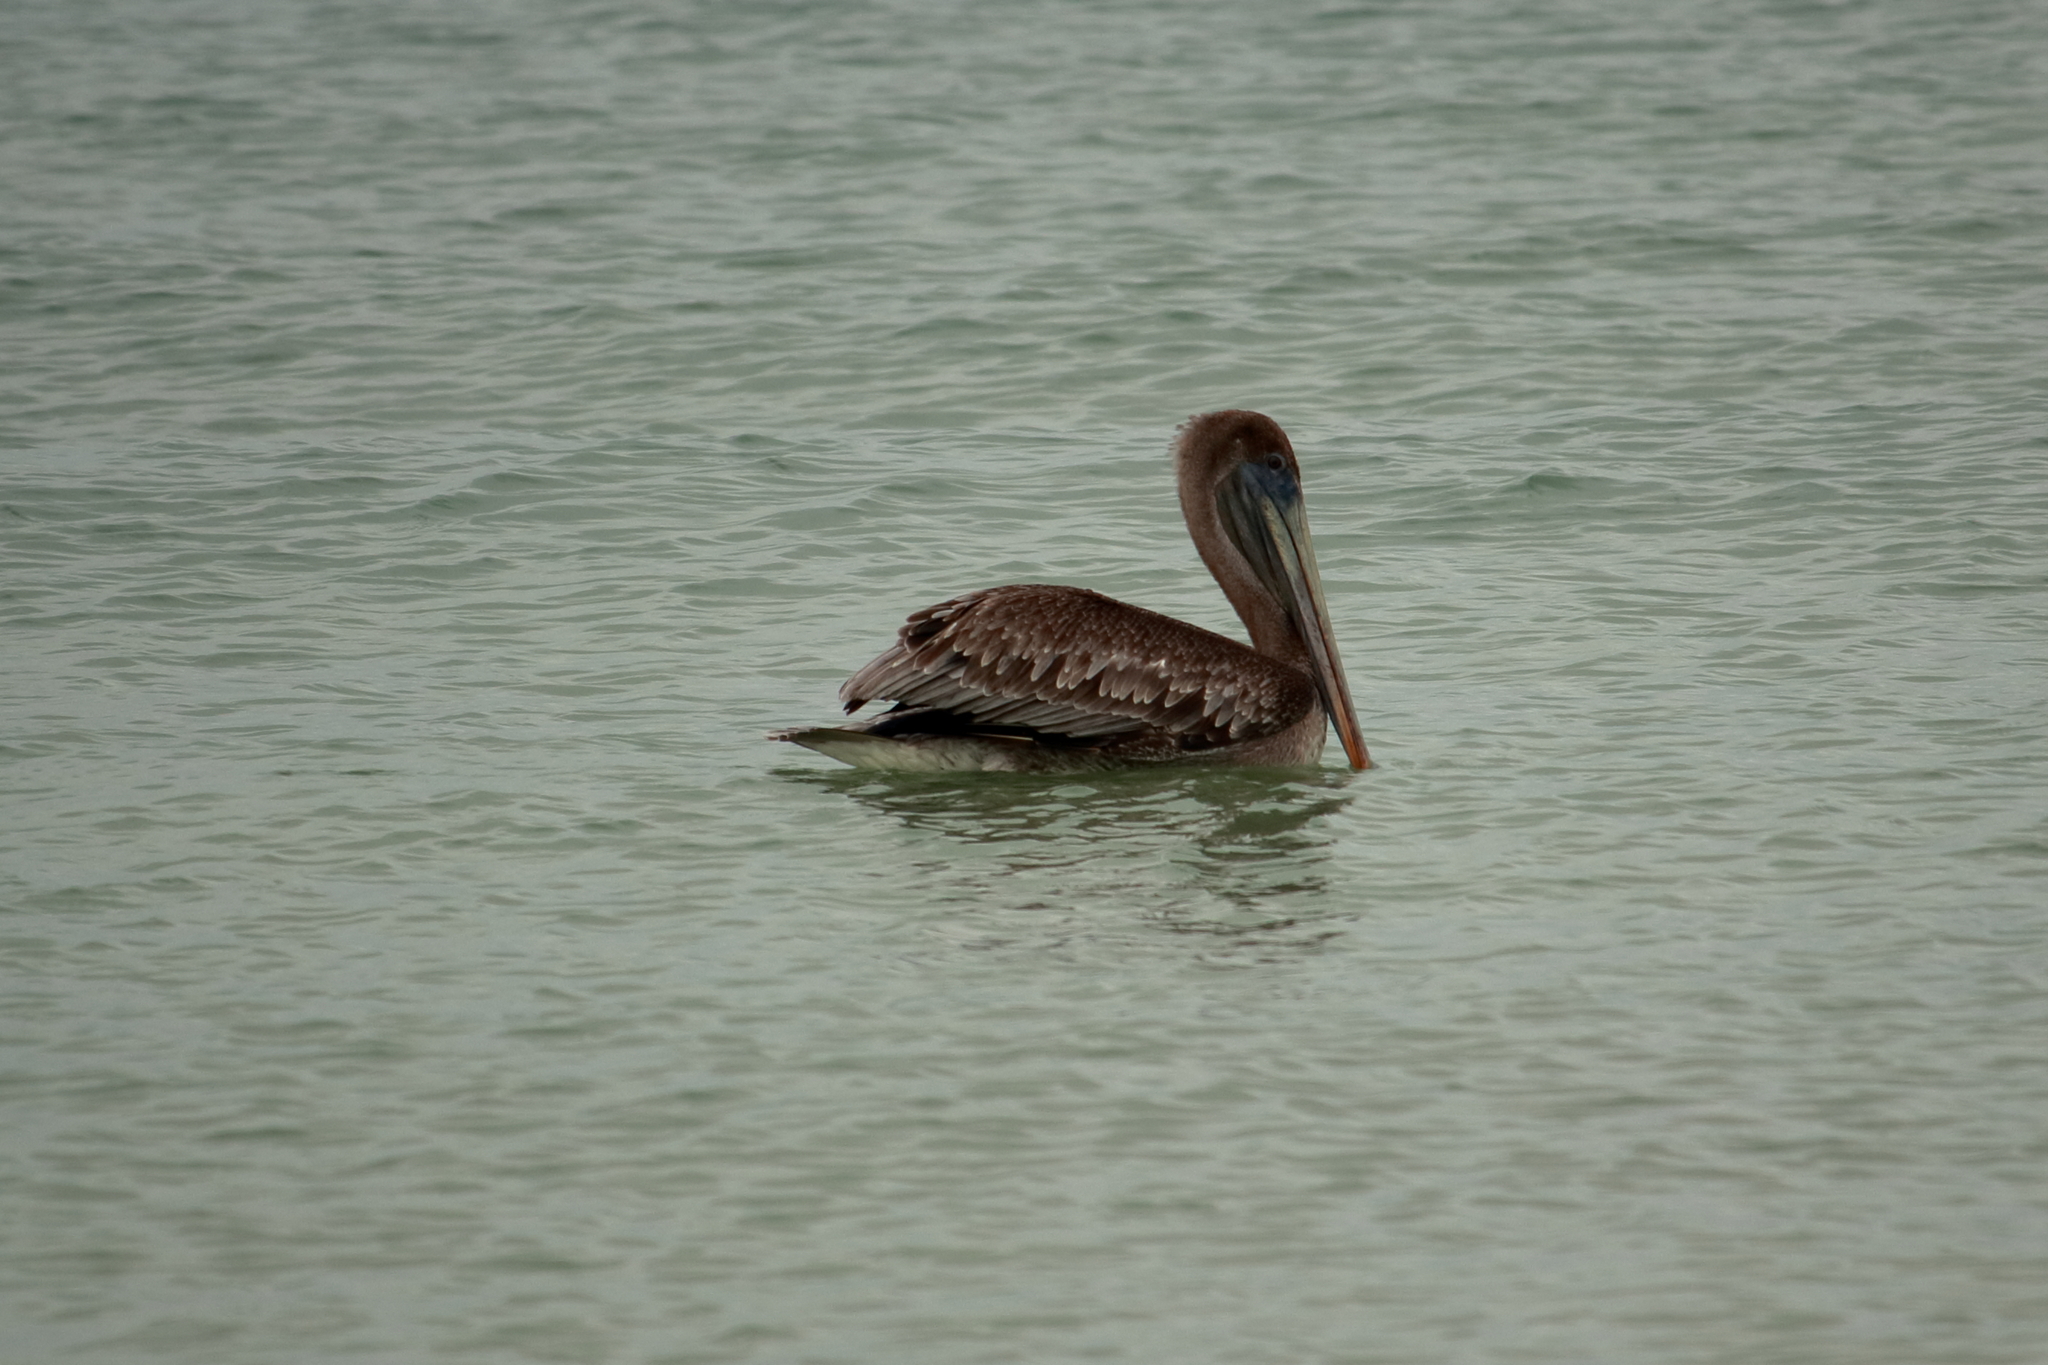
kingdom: Animalia
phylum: Chordata
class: Aves
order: Pelecaniformes
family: Pelecanidae
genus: Pelecanus
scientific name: Pelecanus occidentalis
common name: Brown pelican
